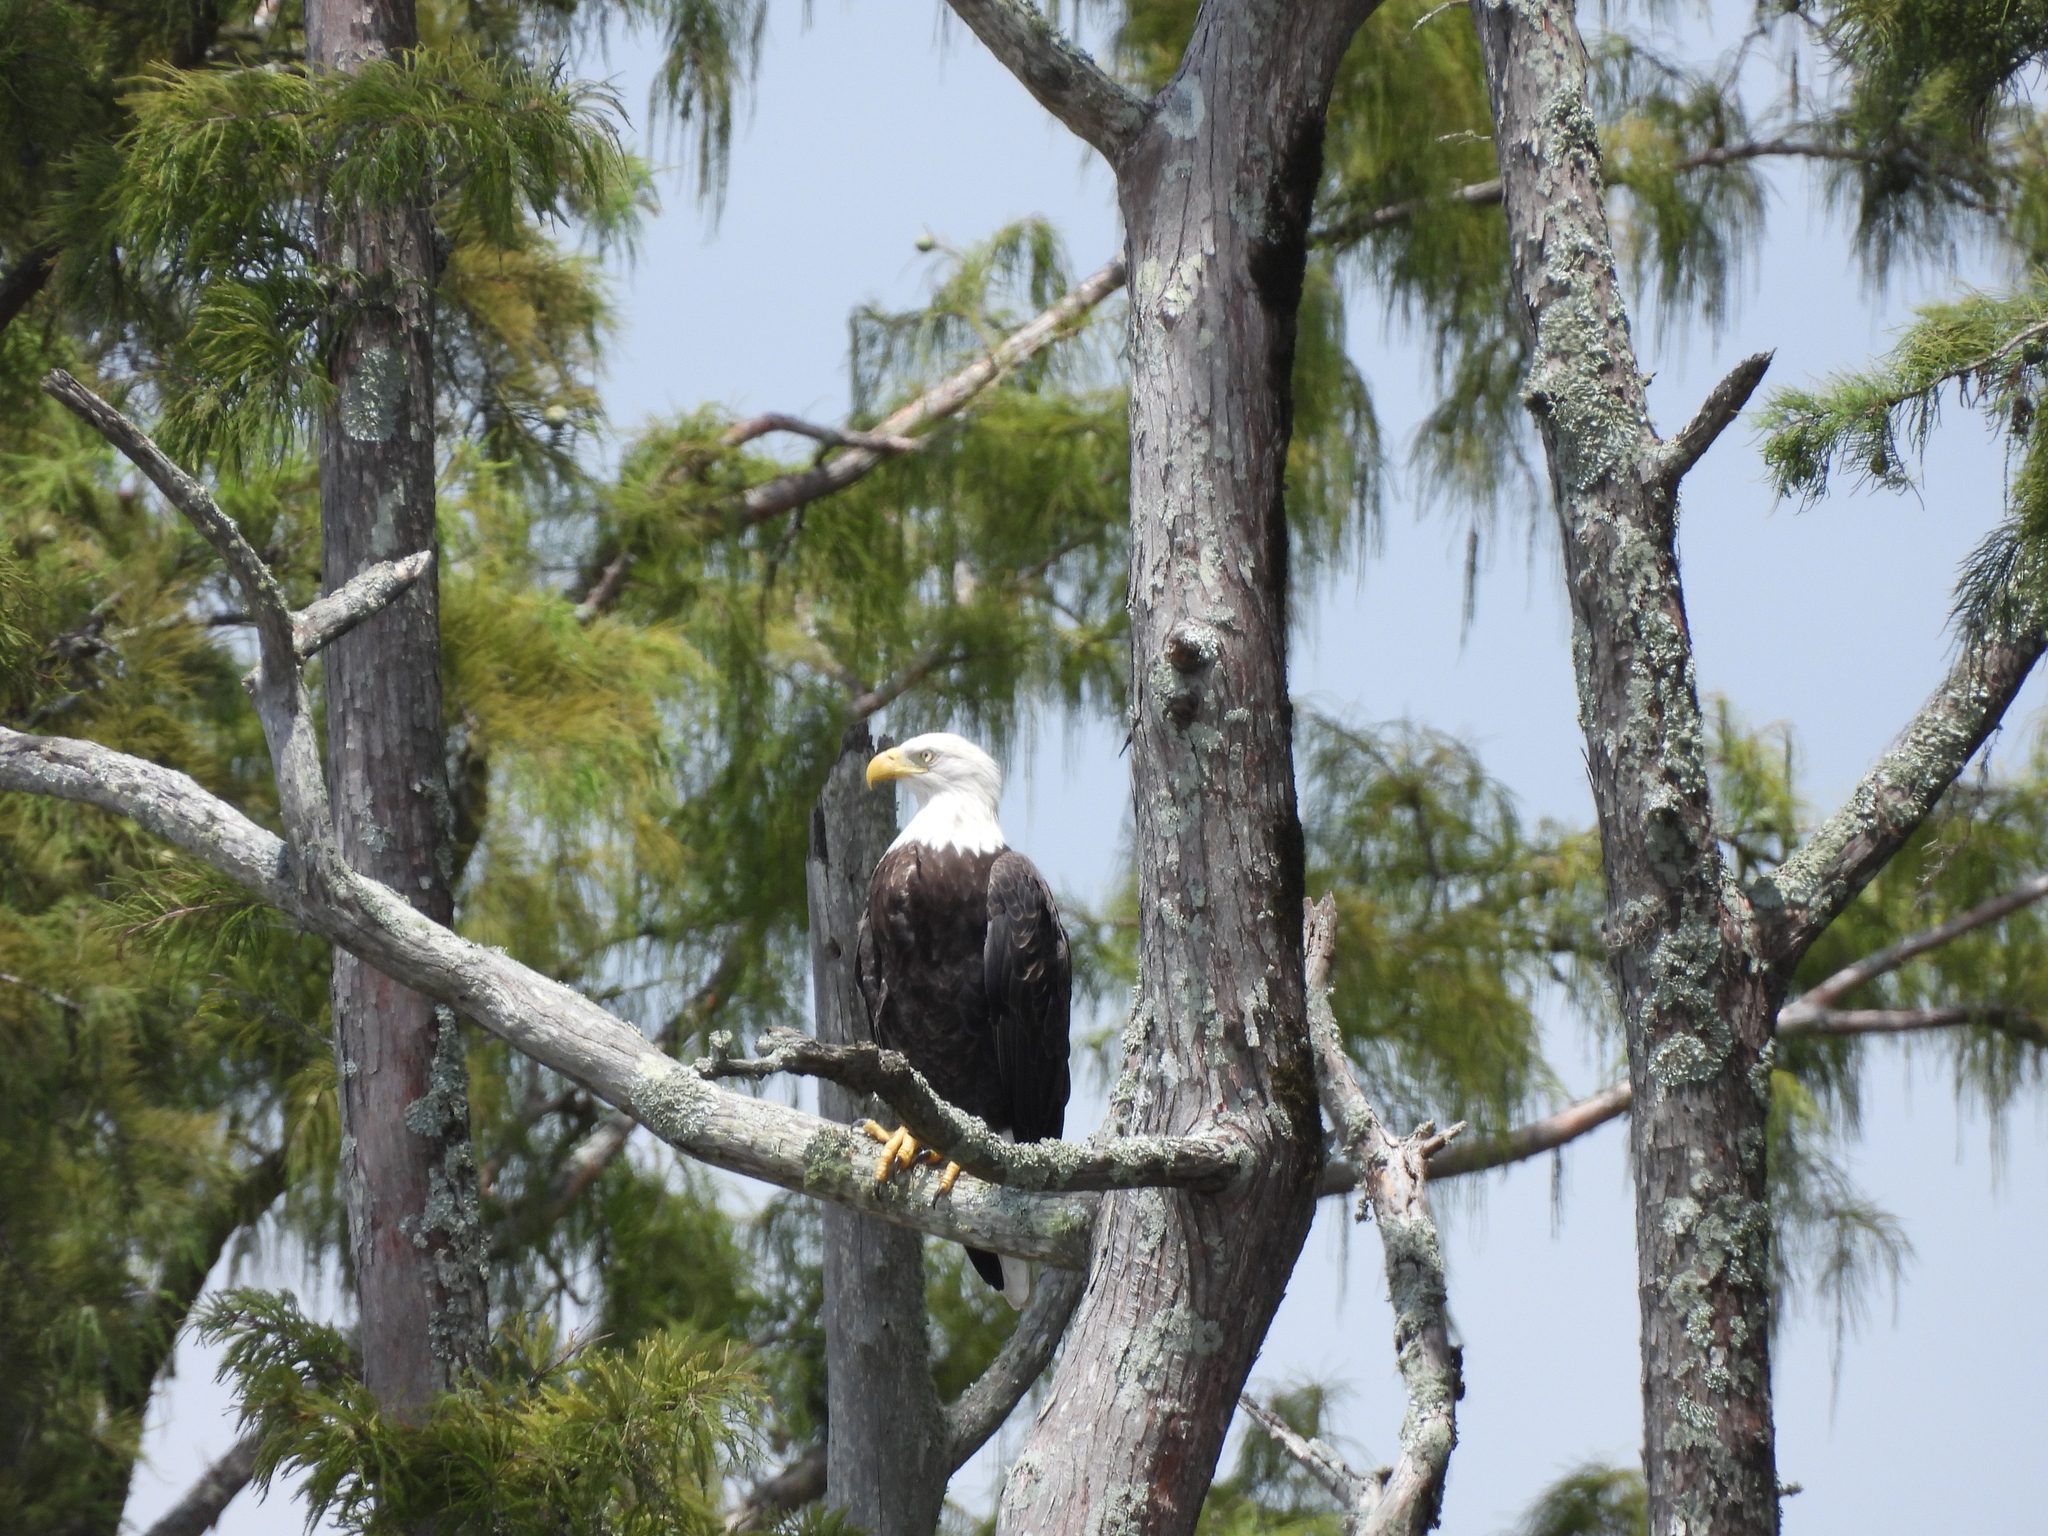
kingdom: Animalia
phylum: Chordata
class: Aves
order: Accipitriformes
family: Accipitridae
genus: Haliaeetus
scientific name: Haliaeetus leucocephalus
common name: Bald eagle
